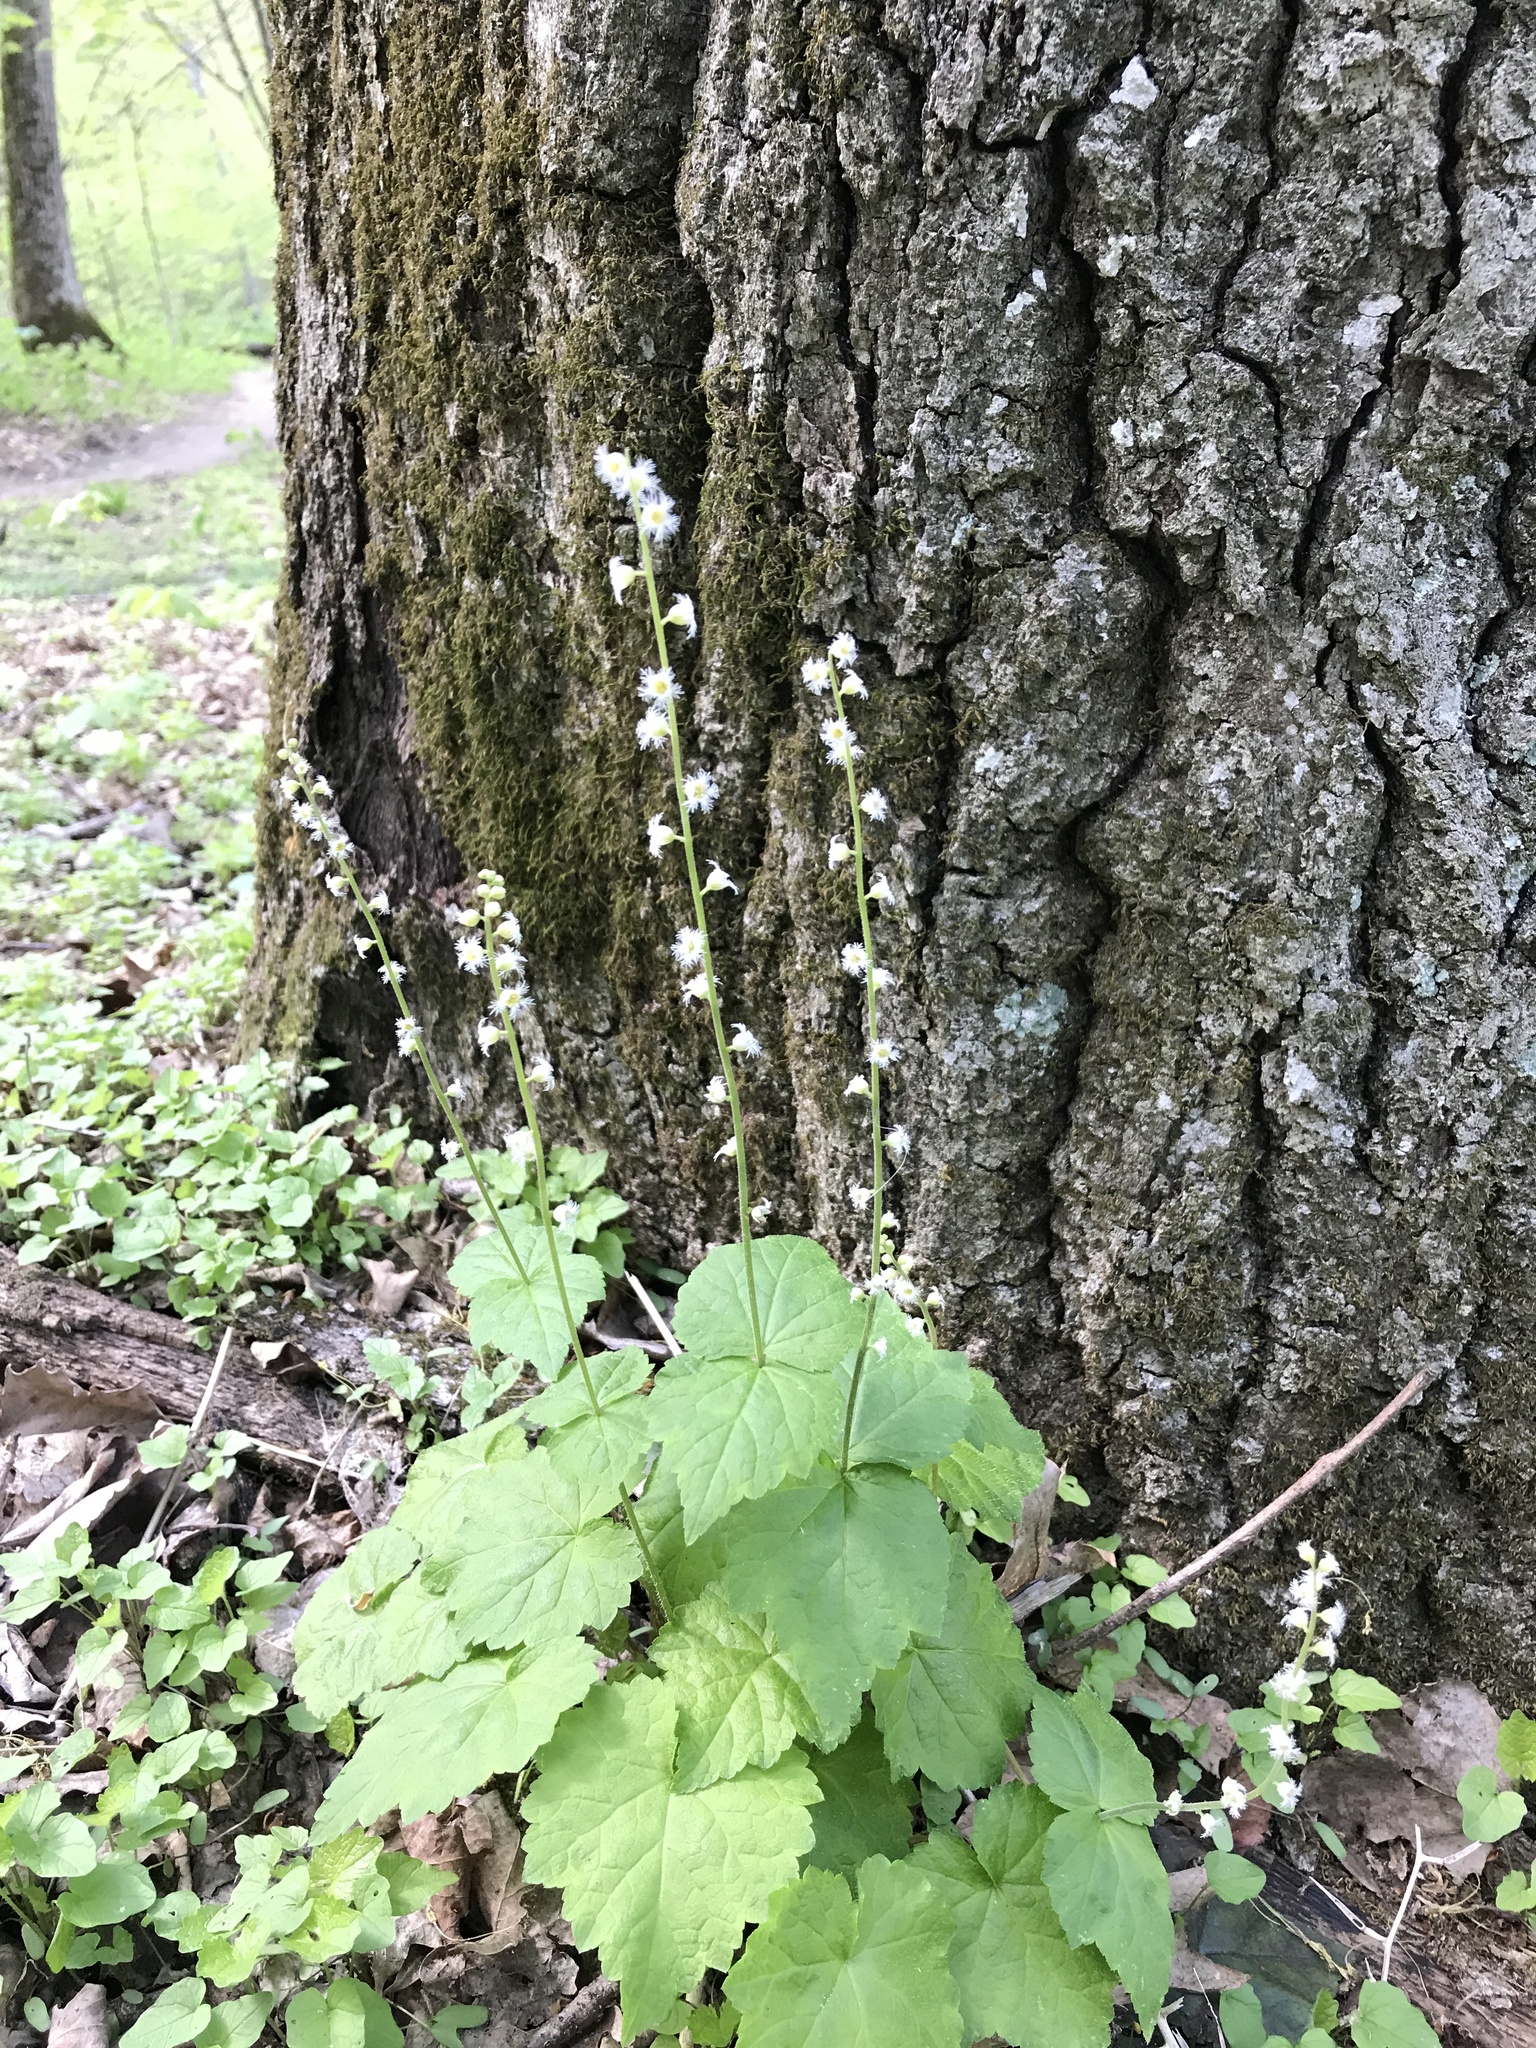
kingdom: Plantae
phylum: Tracheophyta
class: Magnoliopsida
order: Saxifragales
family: Saxifragaceae
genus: Mitella
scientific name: Mitella diphylla
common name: Coolwort
